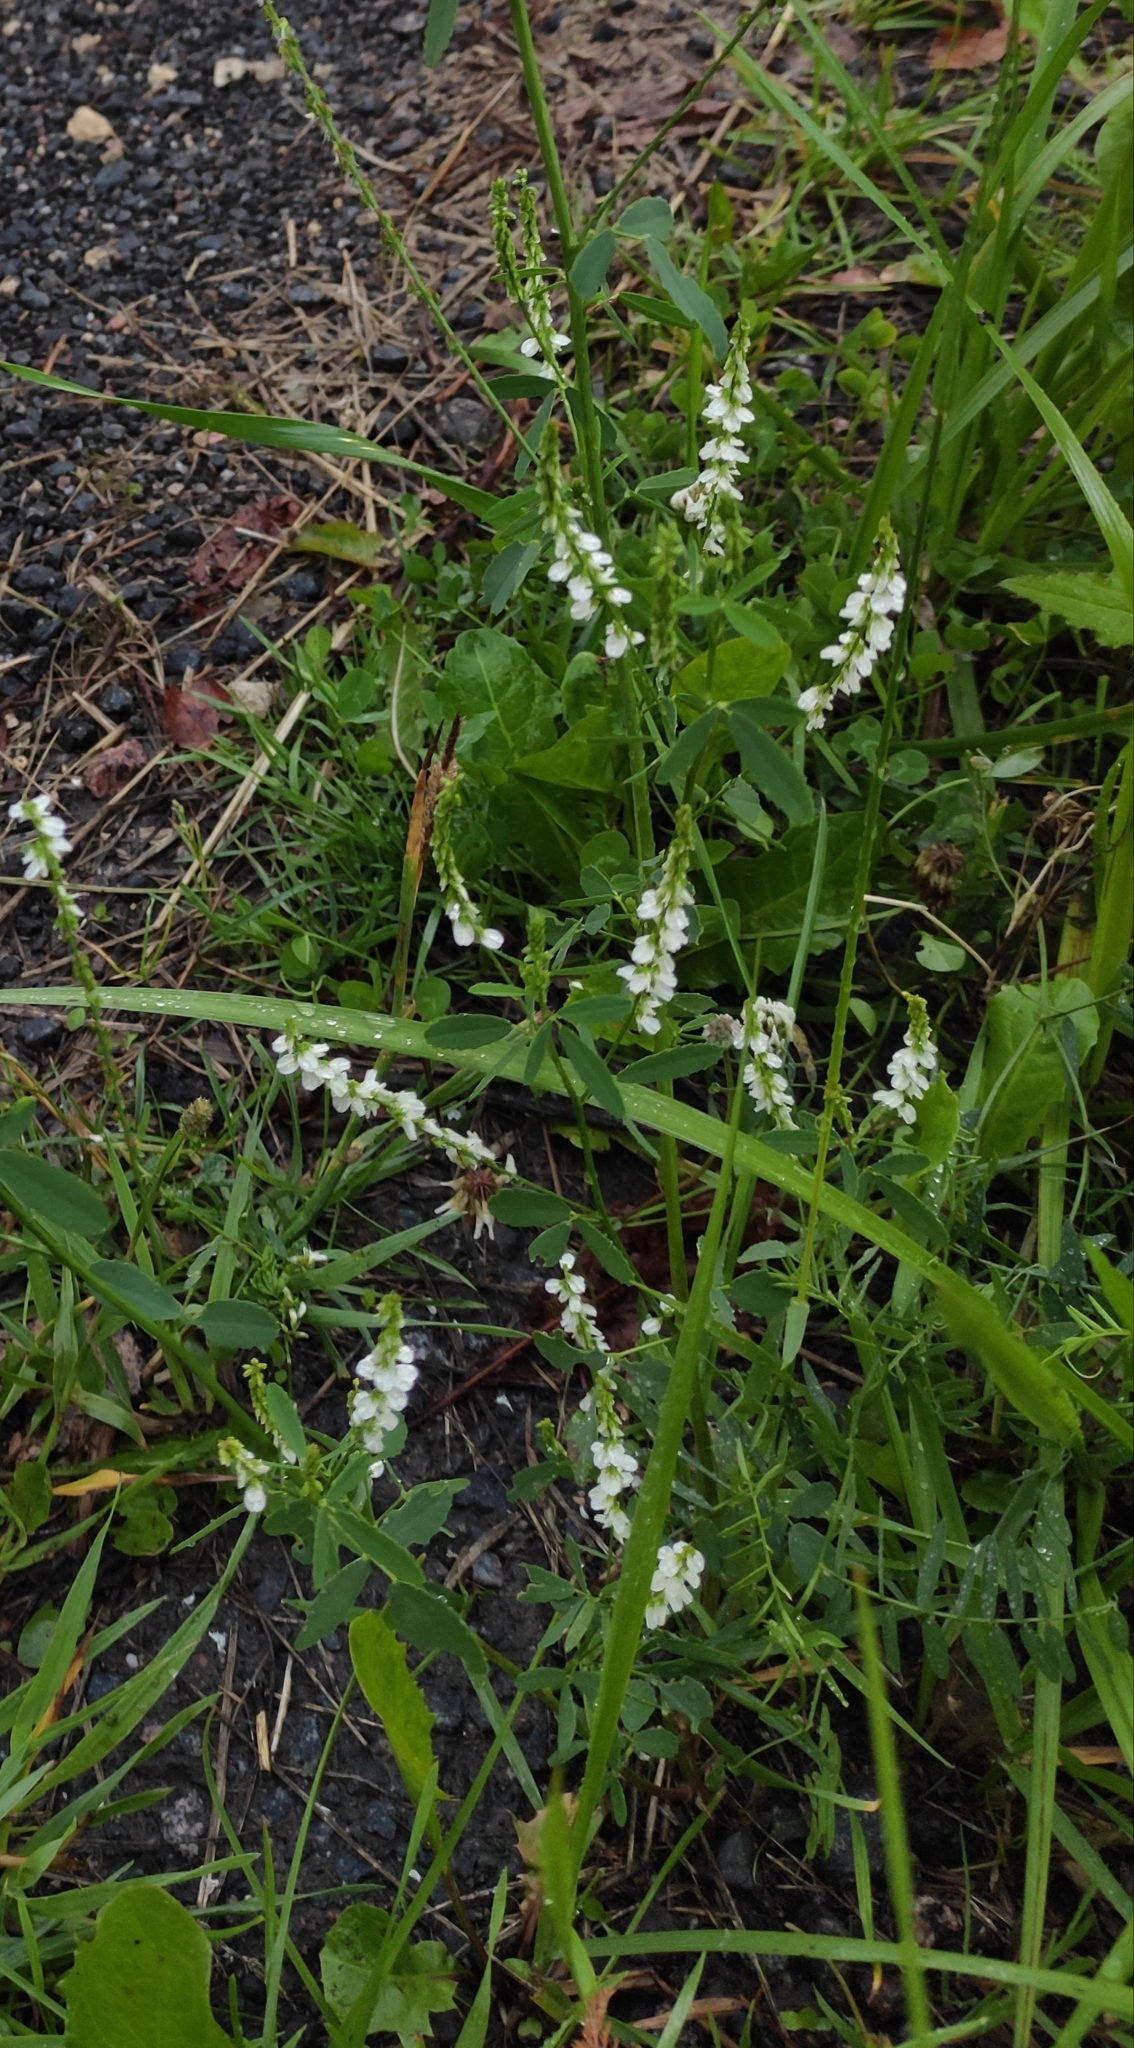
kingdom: Plantae
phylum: Tracheophyta
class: Magnoliopsida
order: Fabales
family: Fabaceae
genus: Melilotus
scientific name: Melilotus albus
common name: White melilot
